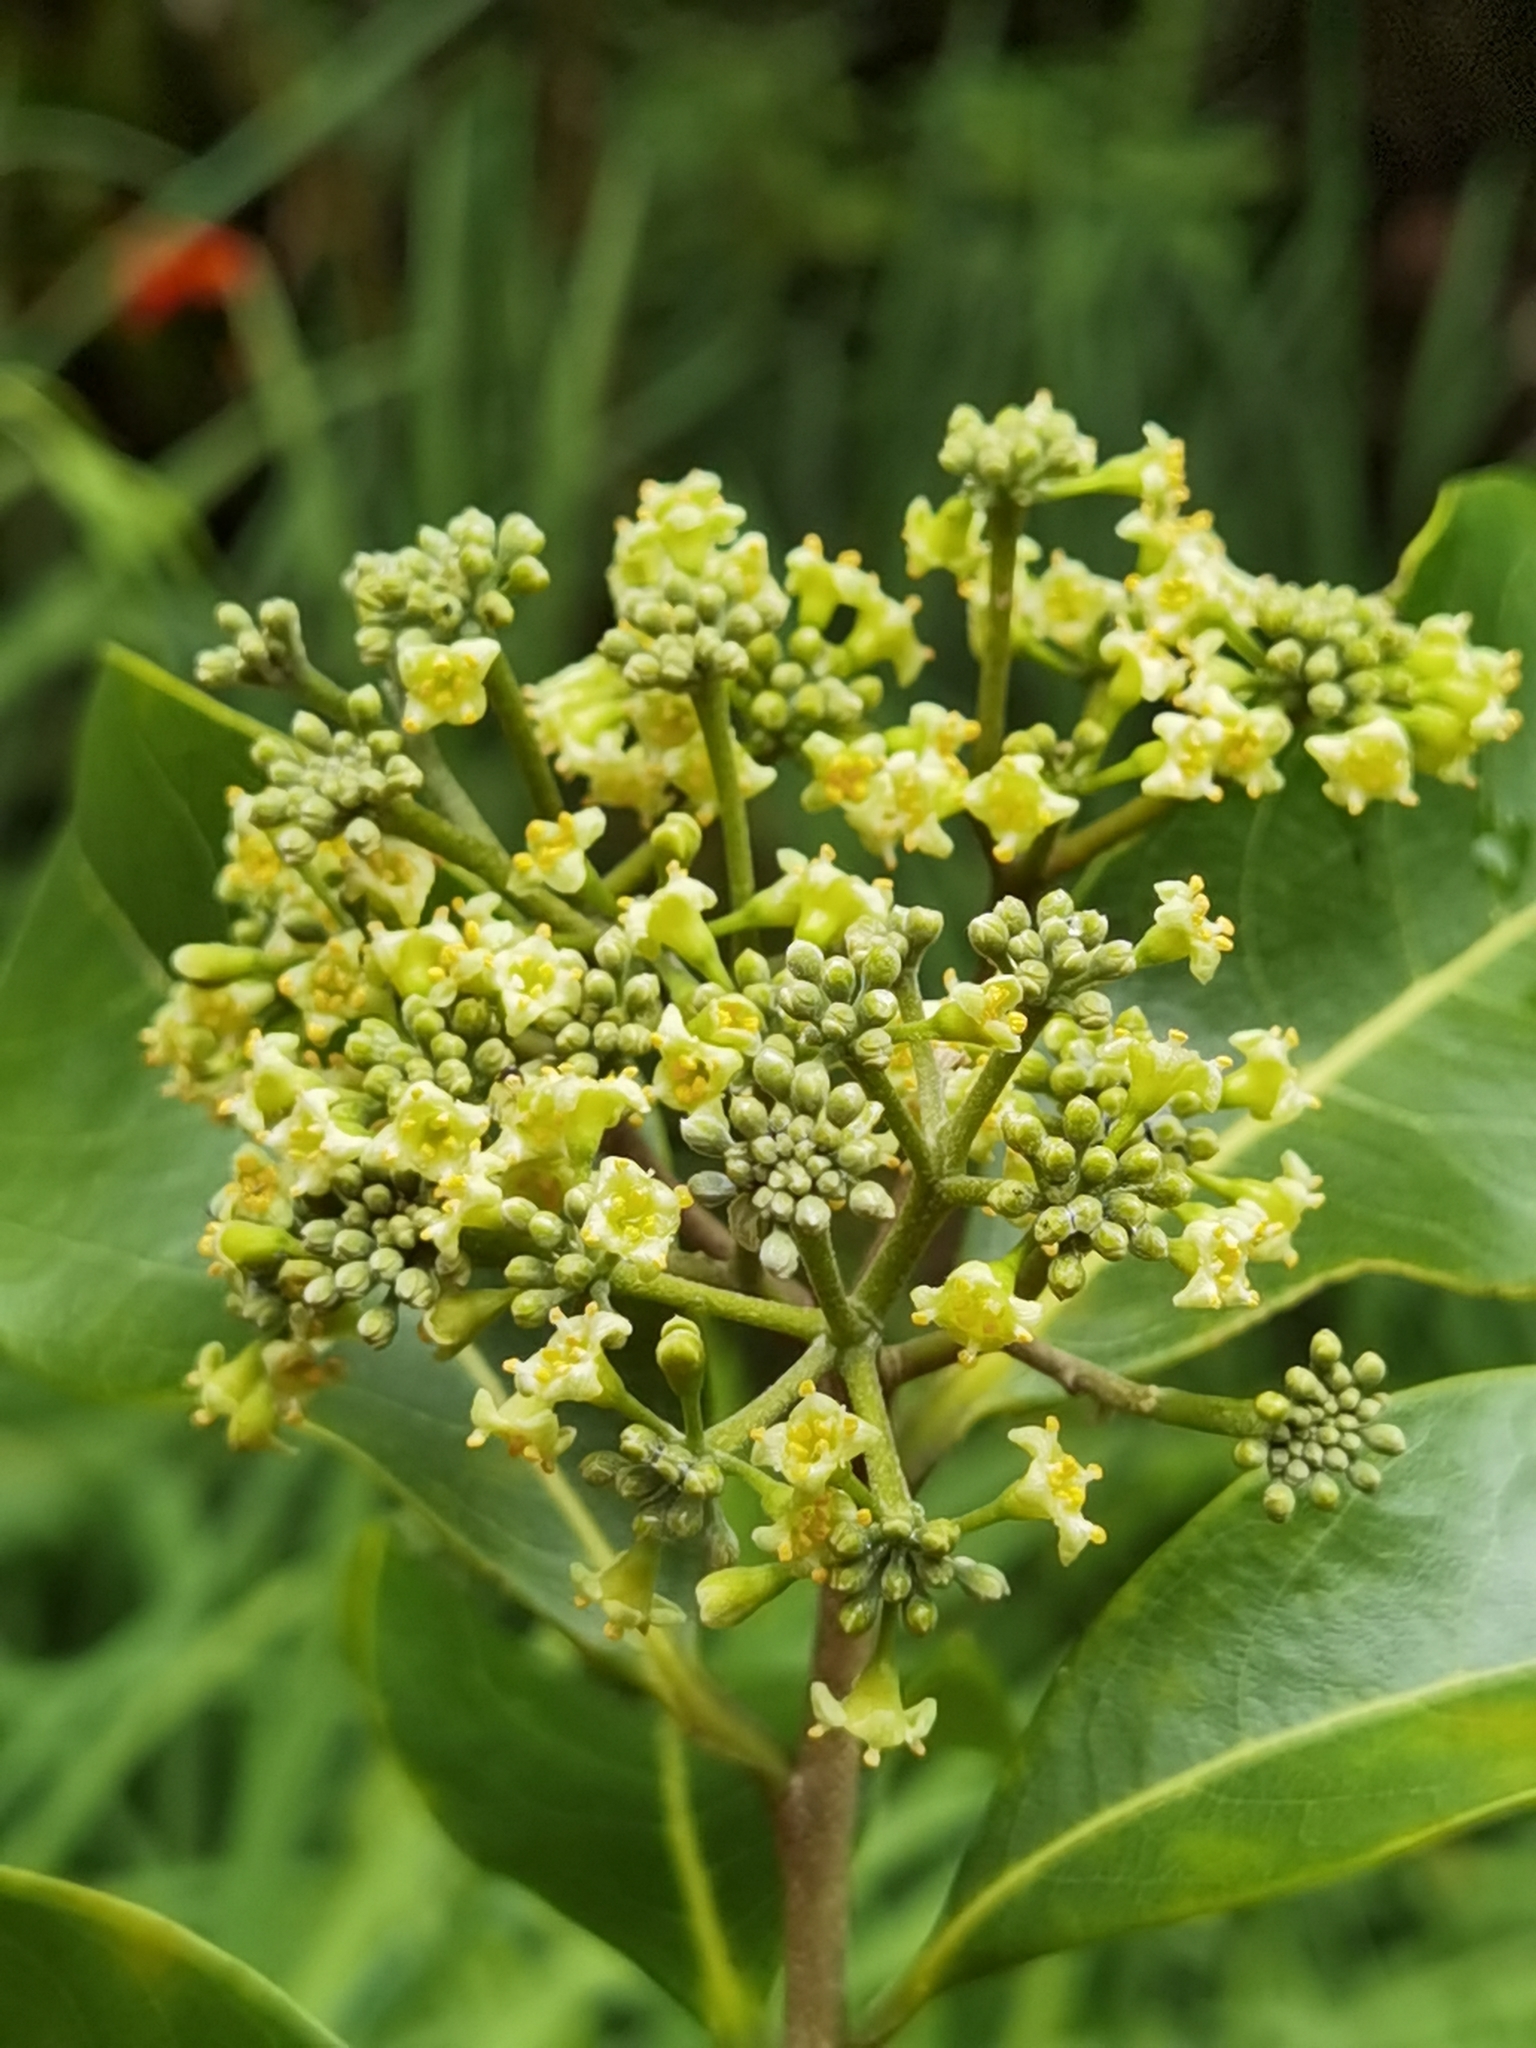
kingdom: Plantae
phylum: Tracheophyta
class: Magnoliopsida
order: Malvales
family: Thymelaeaceae
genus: Daphnopsis
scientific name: Daphnopsis americana
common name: Maho
